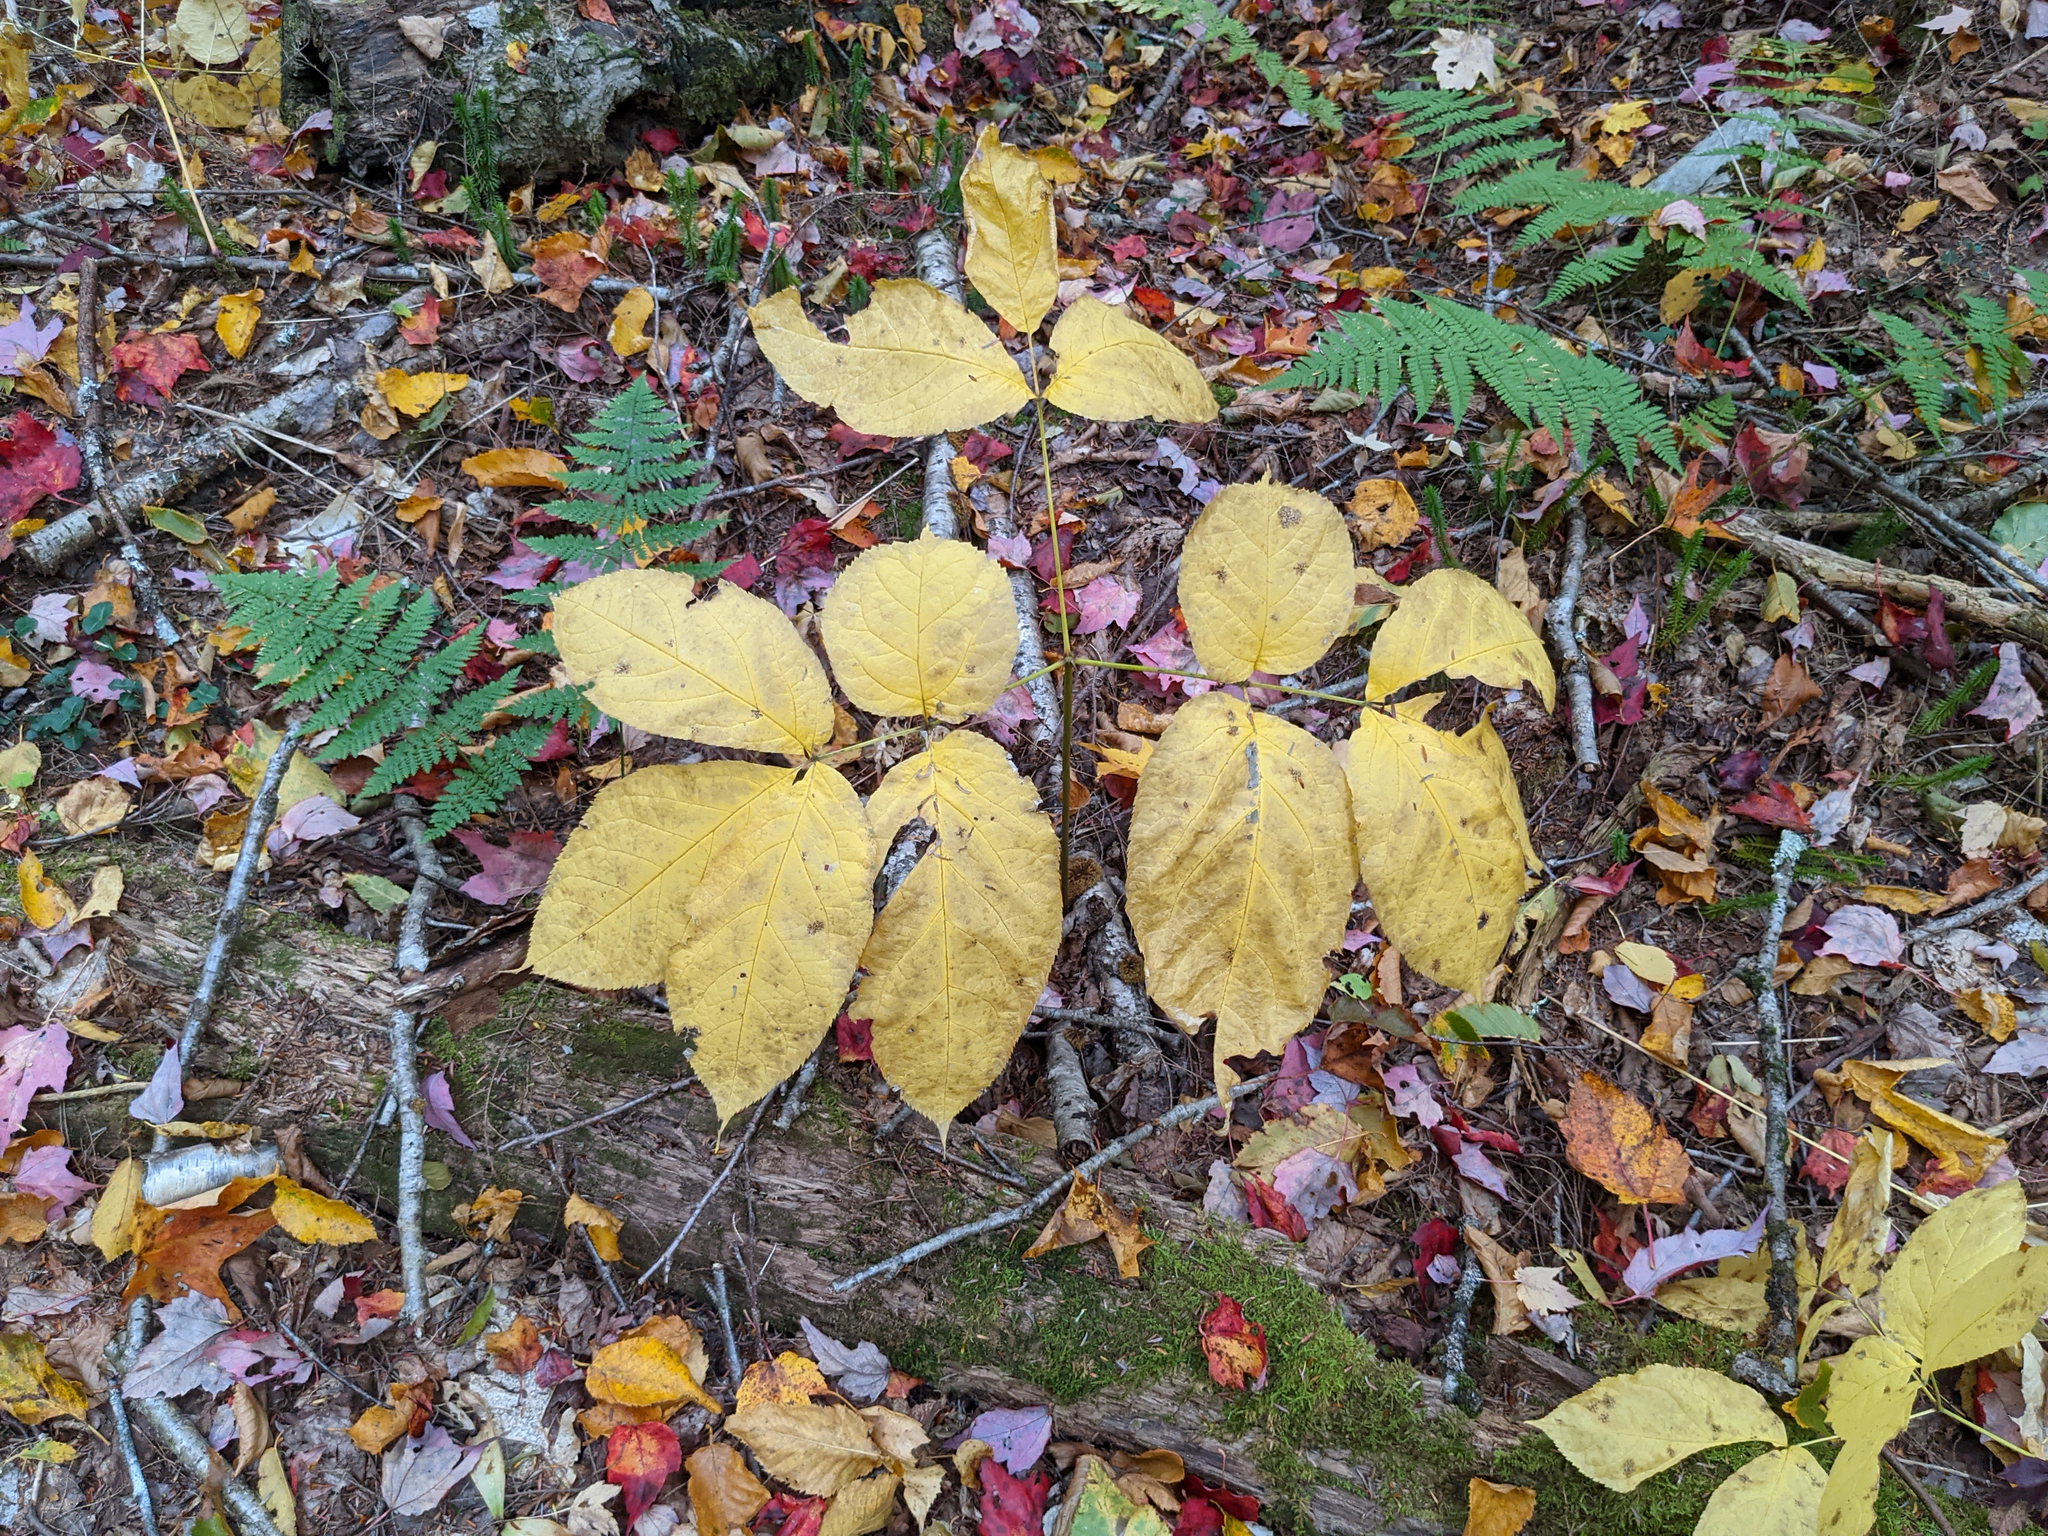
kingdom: Plantae
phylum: Tracheophyta
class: Magnoliopsida
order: Apiales
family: Araliaceae
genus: Aralia
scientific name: Aralia nudicaulis
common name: Wild sarsaparilla
